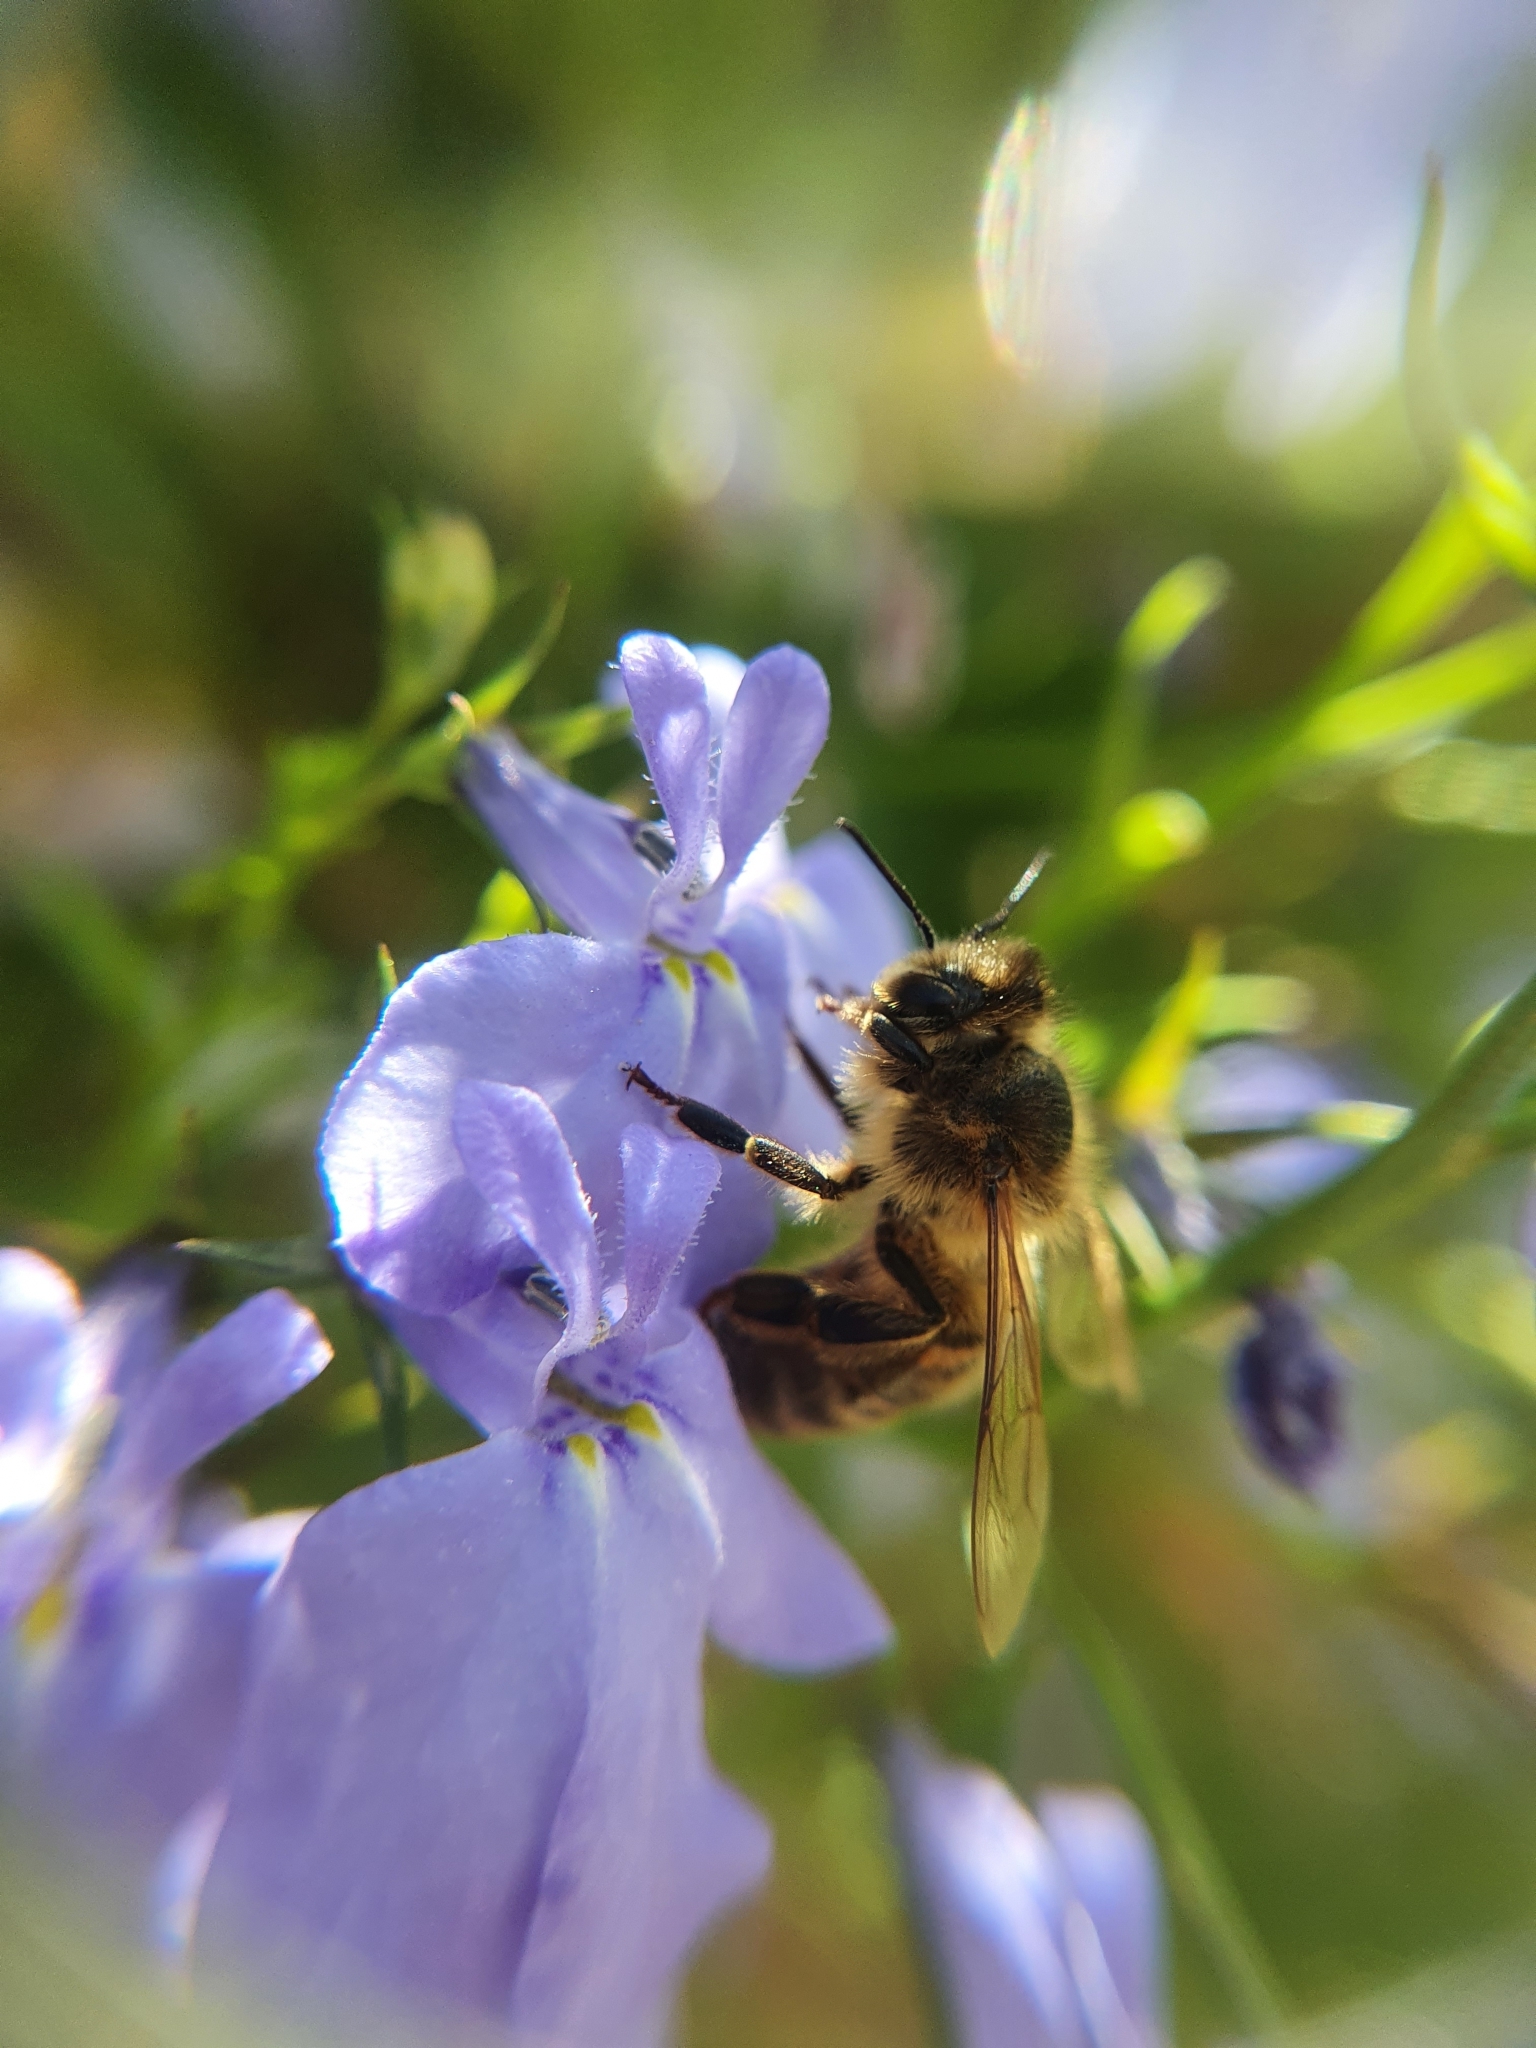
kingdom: Animalia
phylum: Arthropoda
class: Insecta
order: Hymenoptera
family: Apidae
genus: Apis
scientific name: Apis mellifera
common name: Honey bee
